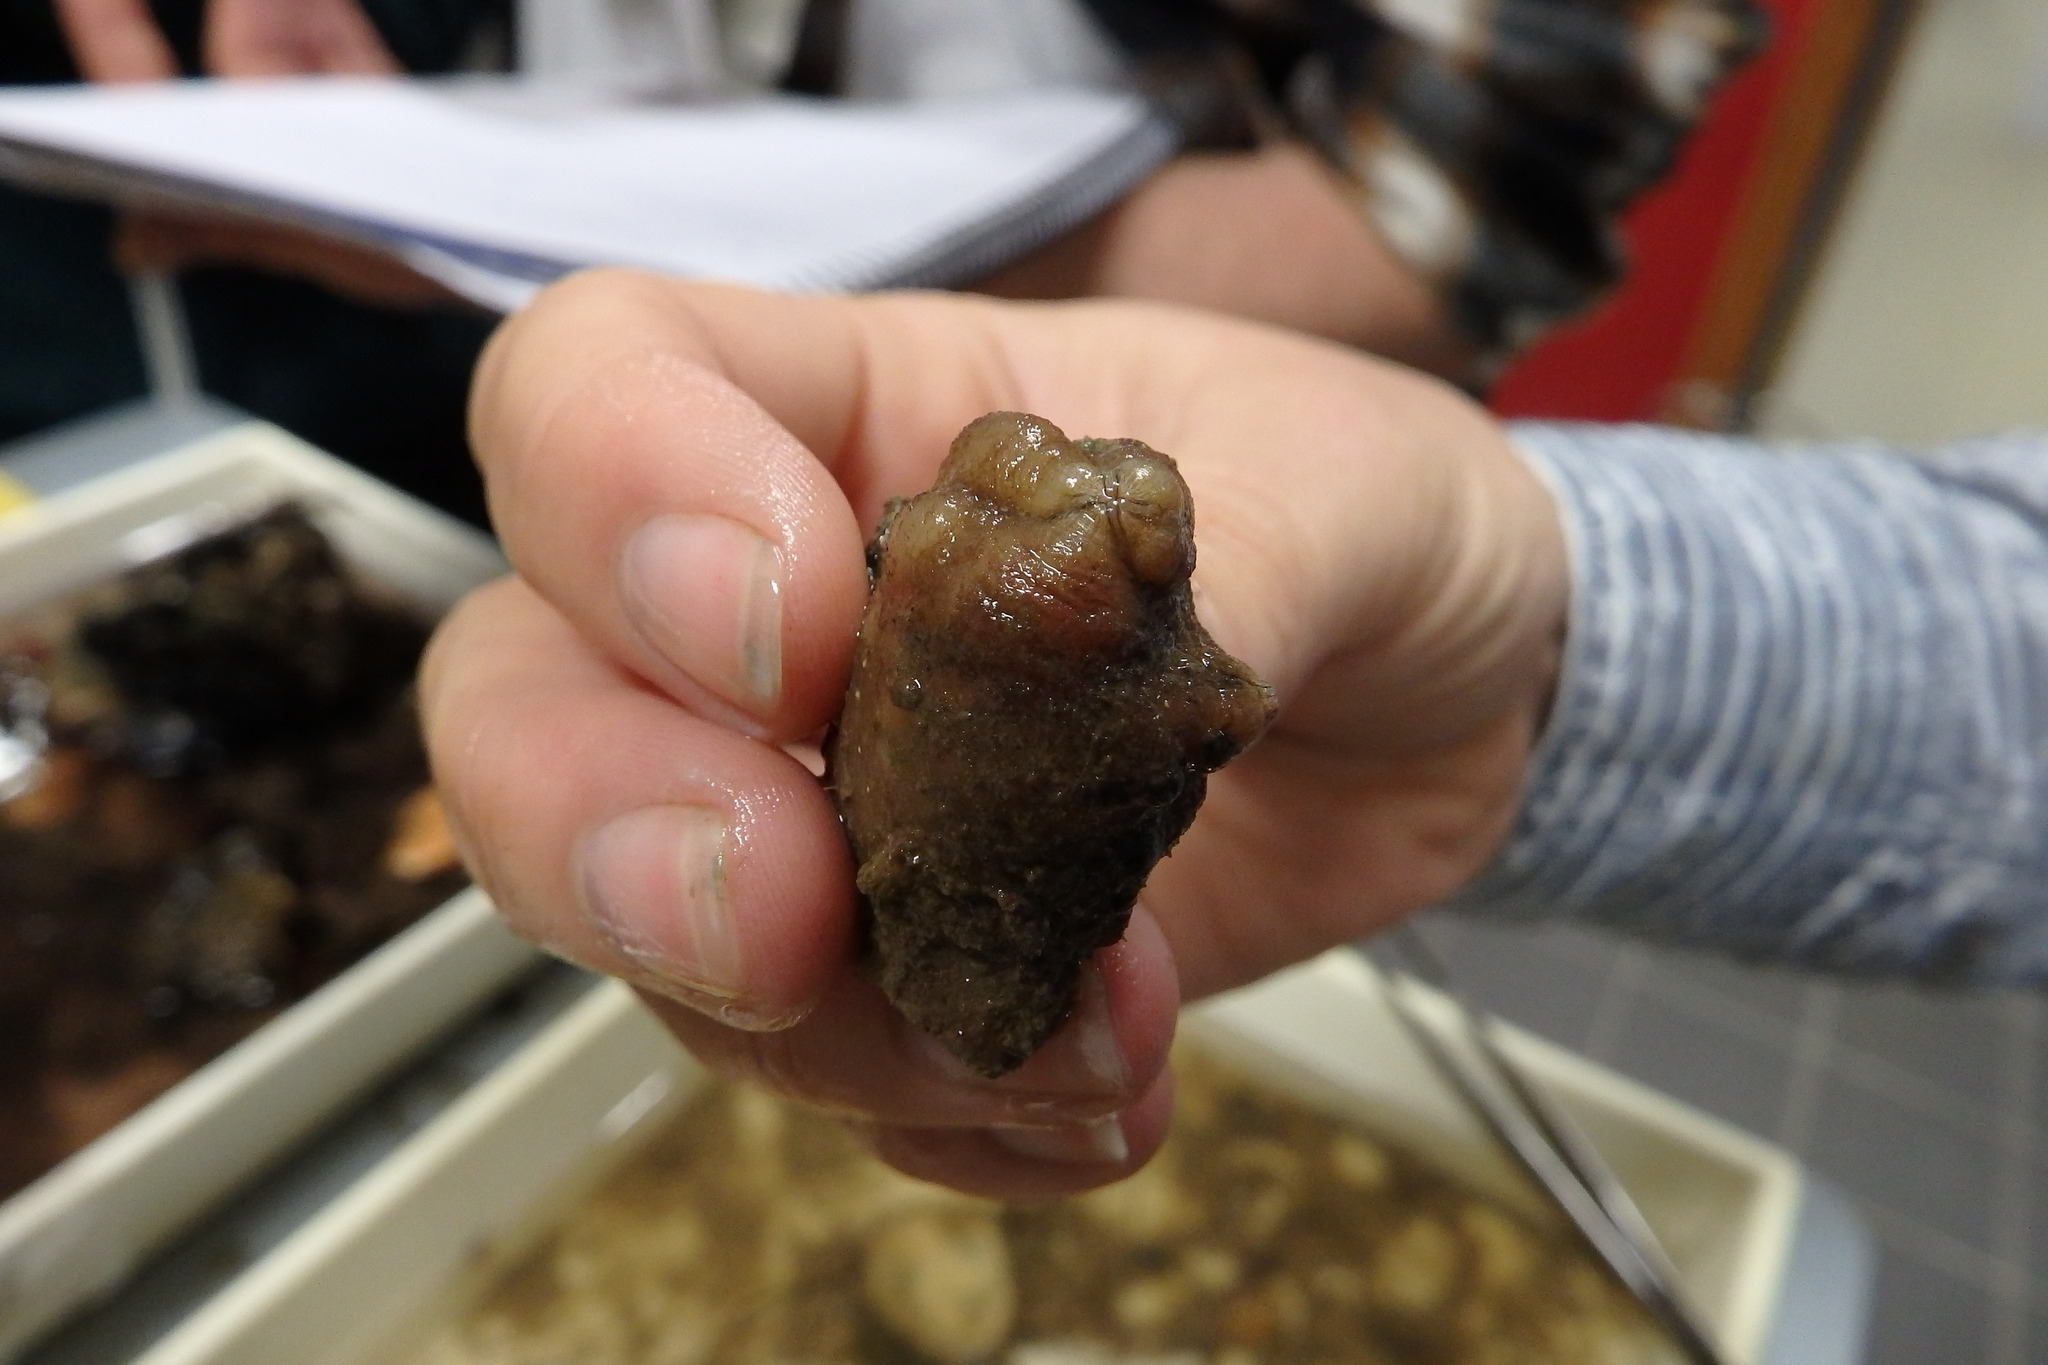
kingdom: Animalia
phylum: Chordata
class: Ascidiacea
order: Stolidobranchia
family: Styelidae
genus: Styela
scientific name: Styela plicata
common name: Pleated tunicate
